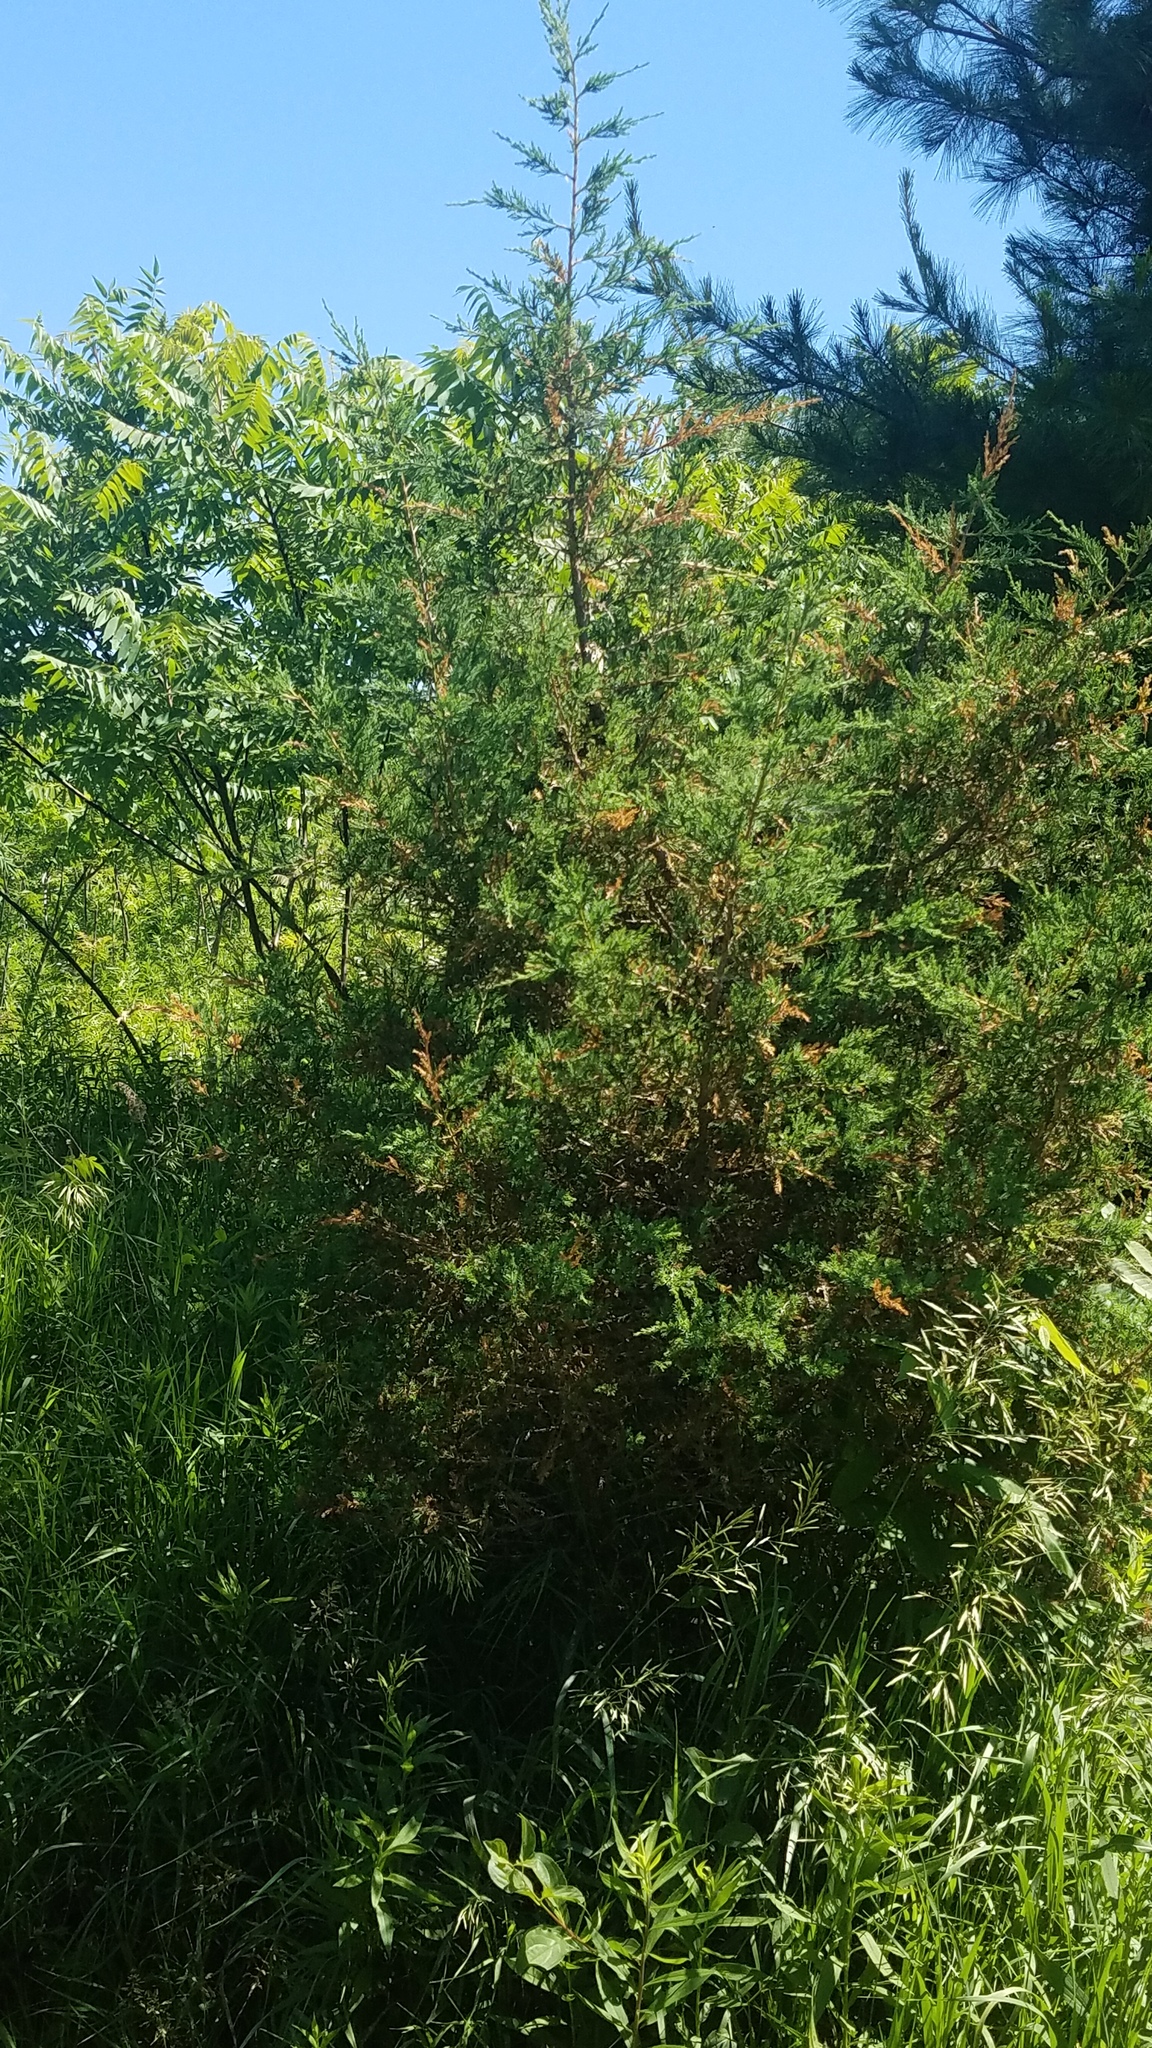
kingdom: Plantae
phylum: Tracheophyta
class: Pinopsida
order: Pinales
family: Cupressaceae
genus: Juniperus
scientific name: Juniperus virginiana
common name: Red juniper
